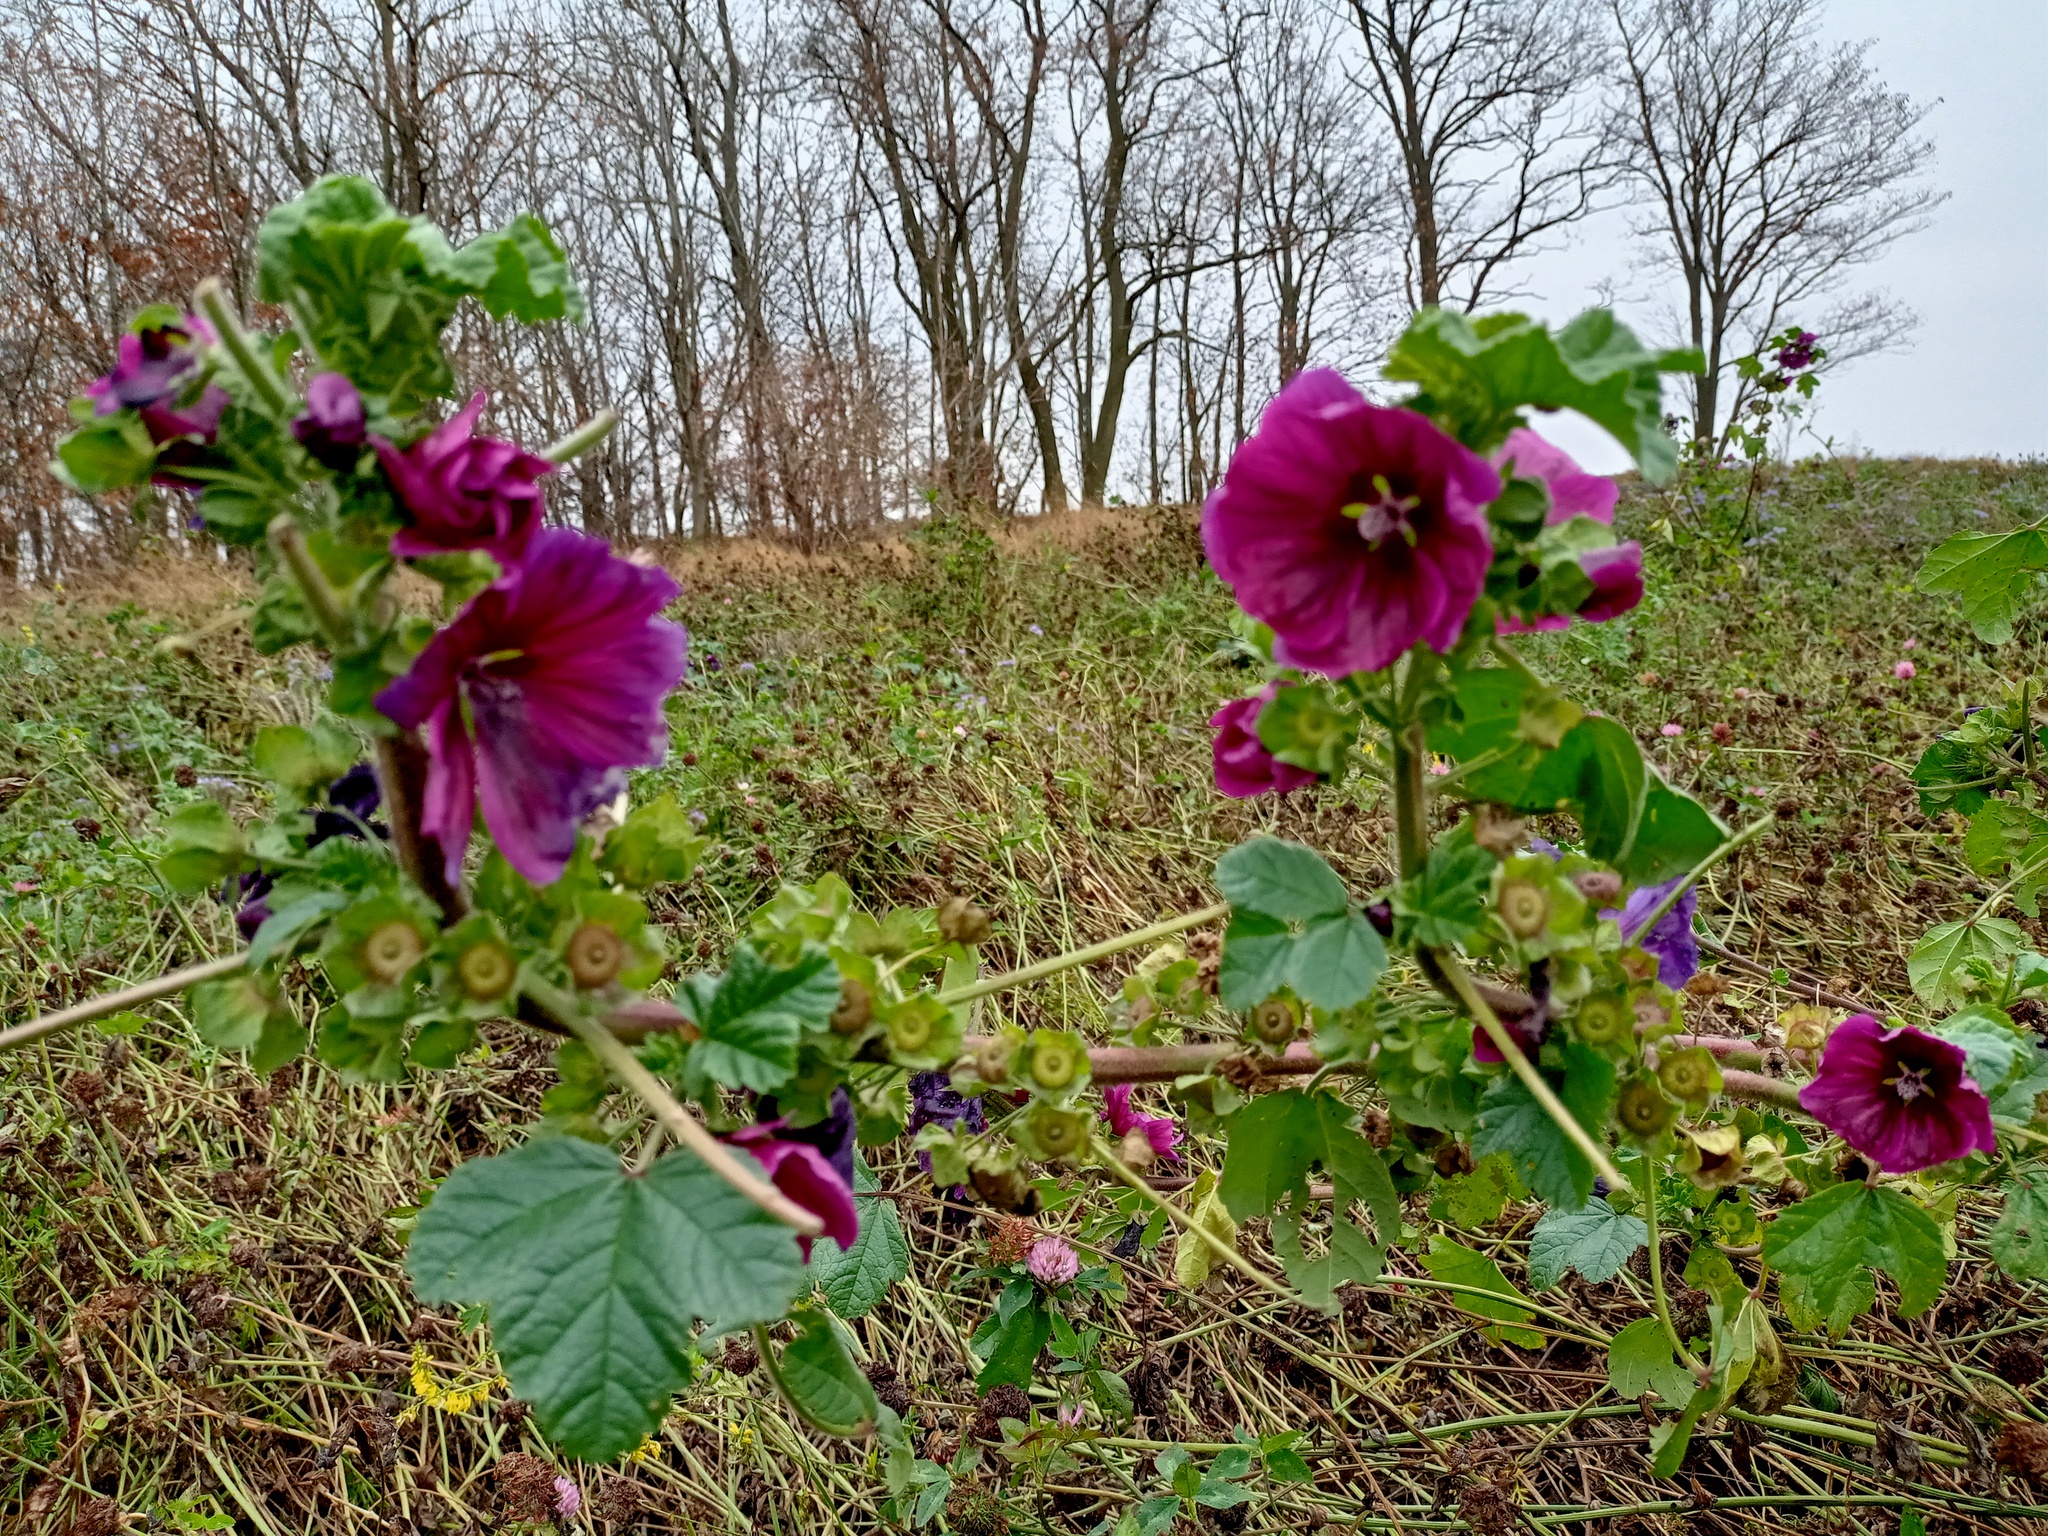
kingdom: Plantae
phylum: Tracheophyta
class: Magnoliopsida
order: Malvales
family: Malvaceae
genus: Malva
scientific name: Malva sylvestris
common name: Common mallow
